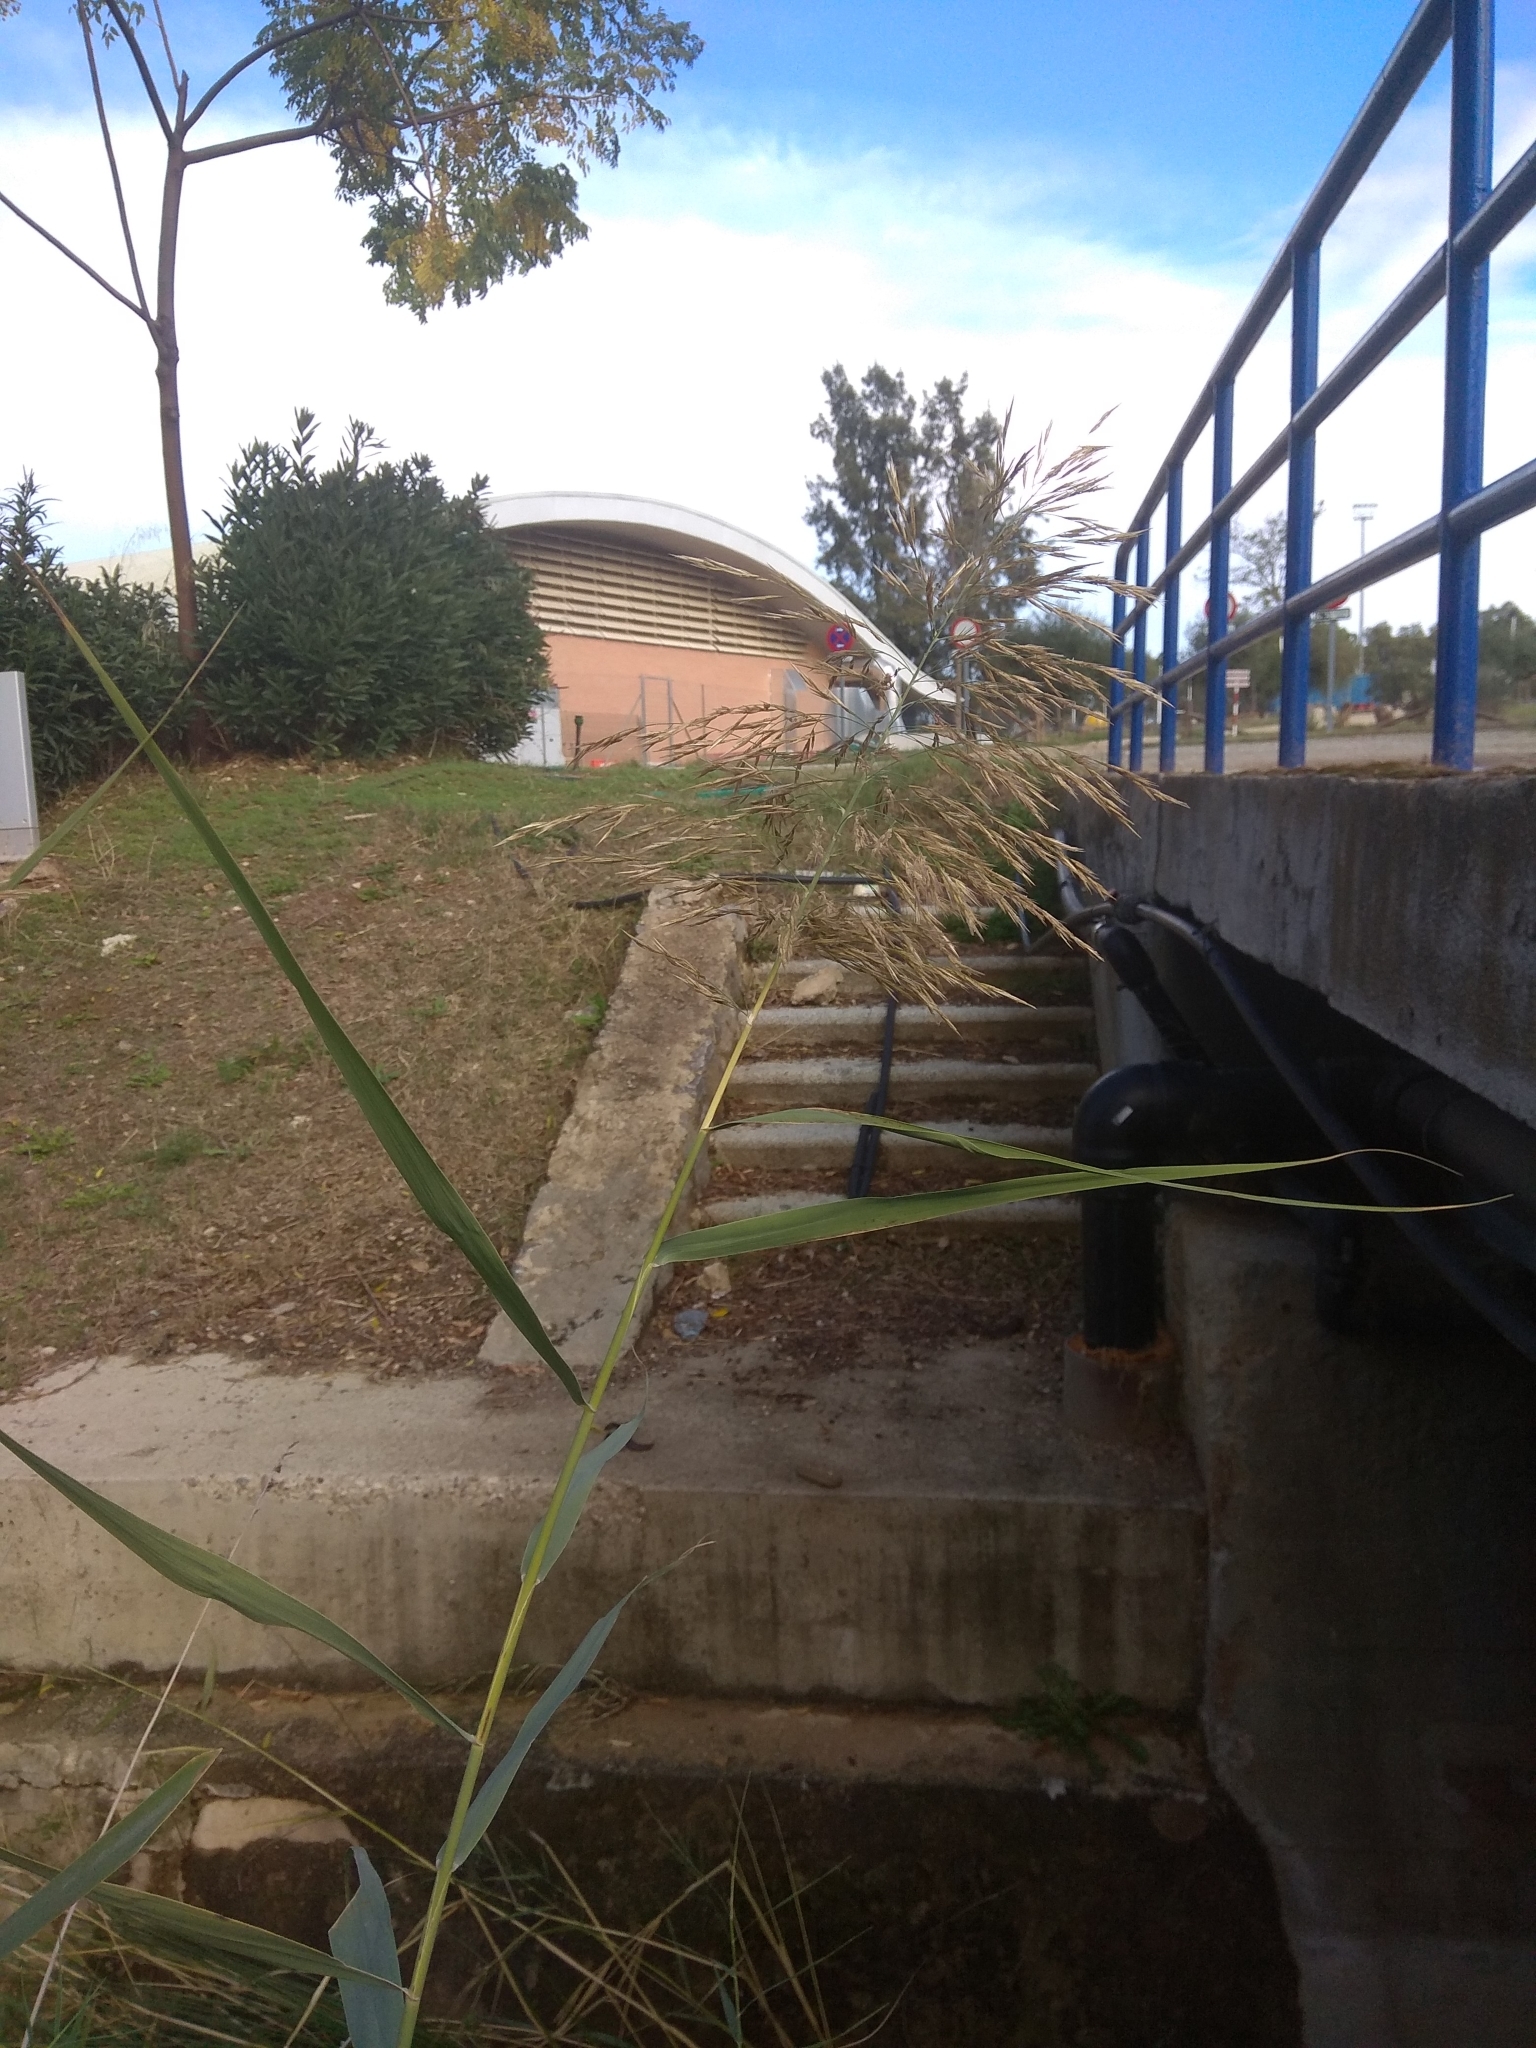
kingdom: Plantae
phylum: Tracheophyta
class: Liliopsida
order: Poales
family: Poaceae
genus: Phragmites
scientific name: Phragmites australis
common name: Common reed
